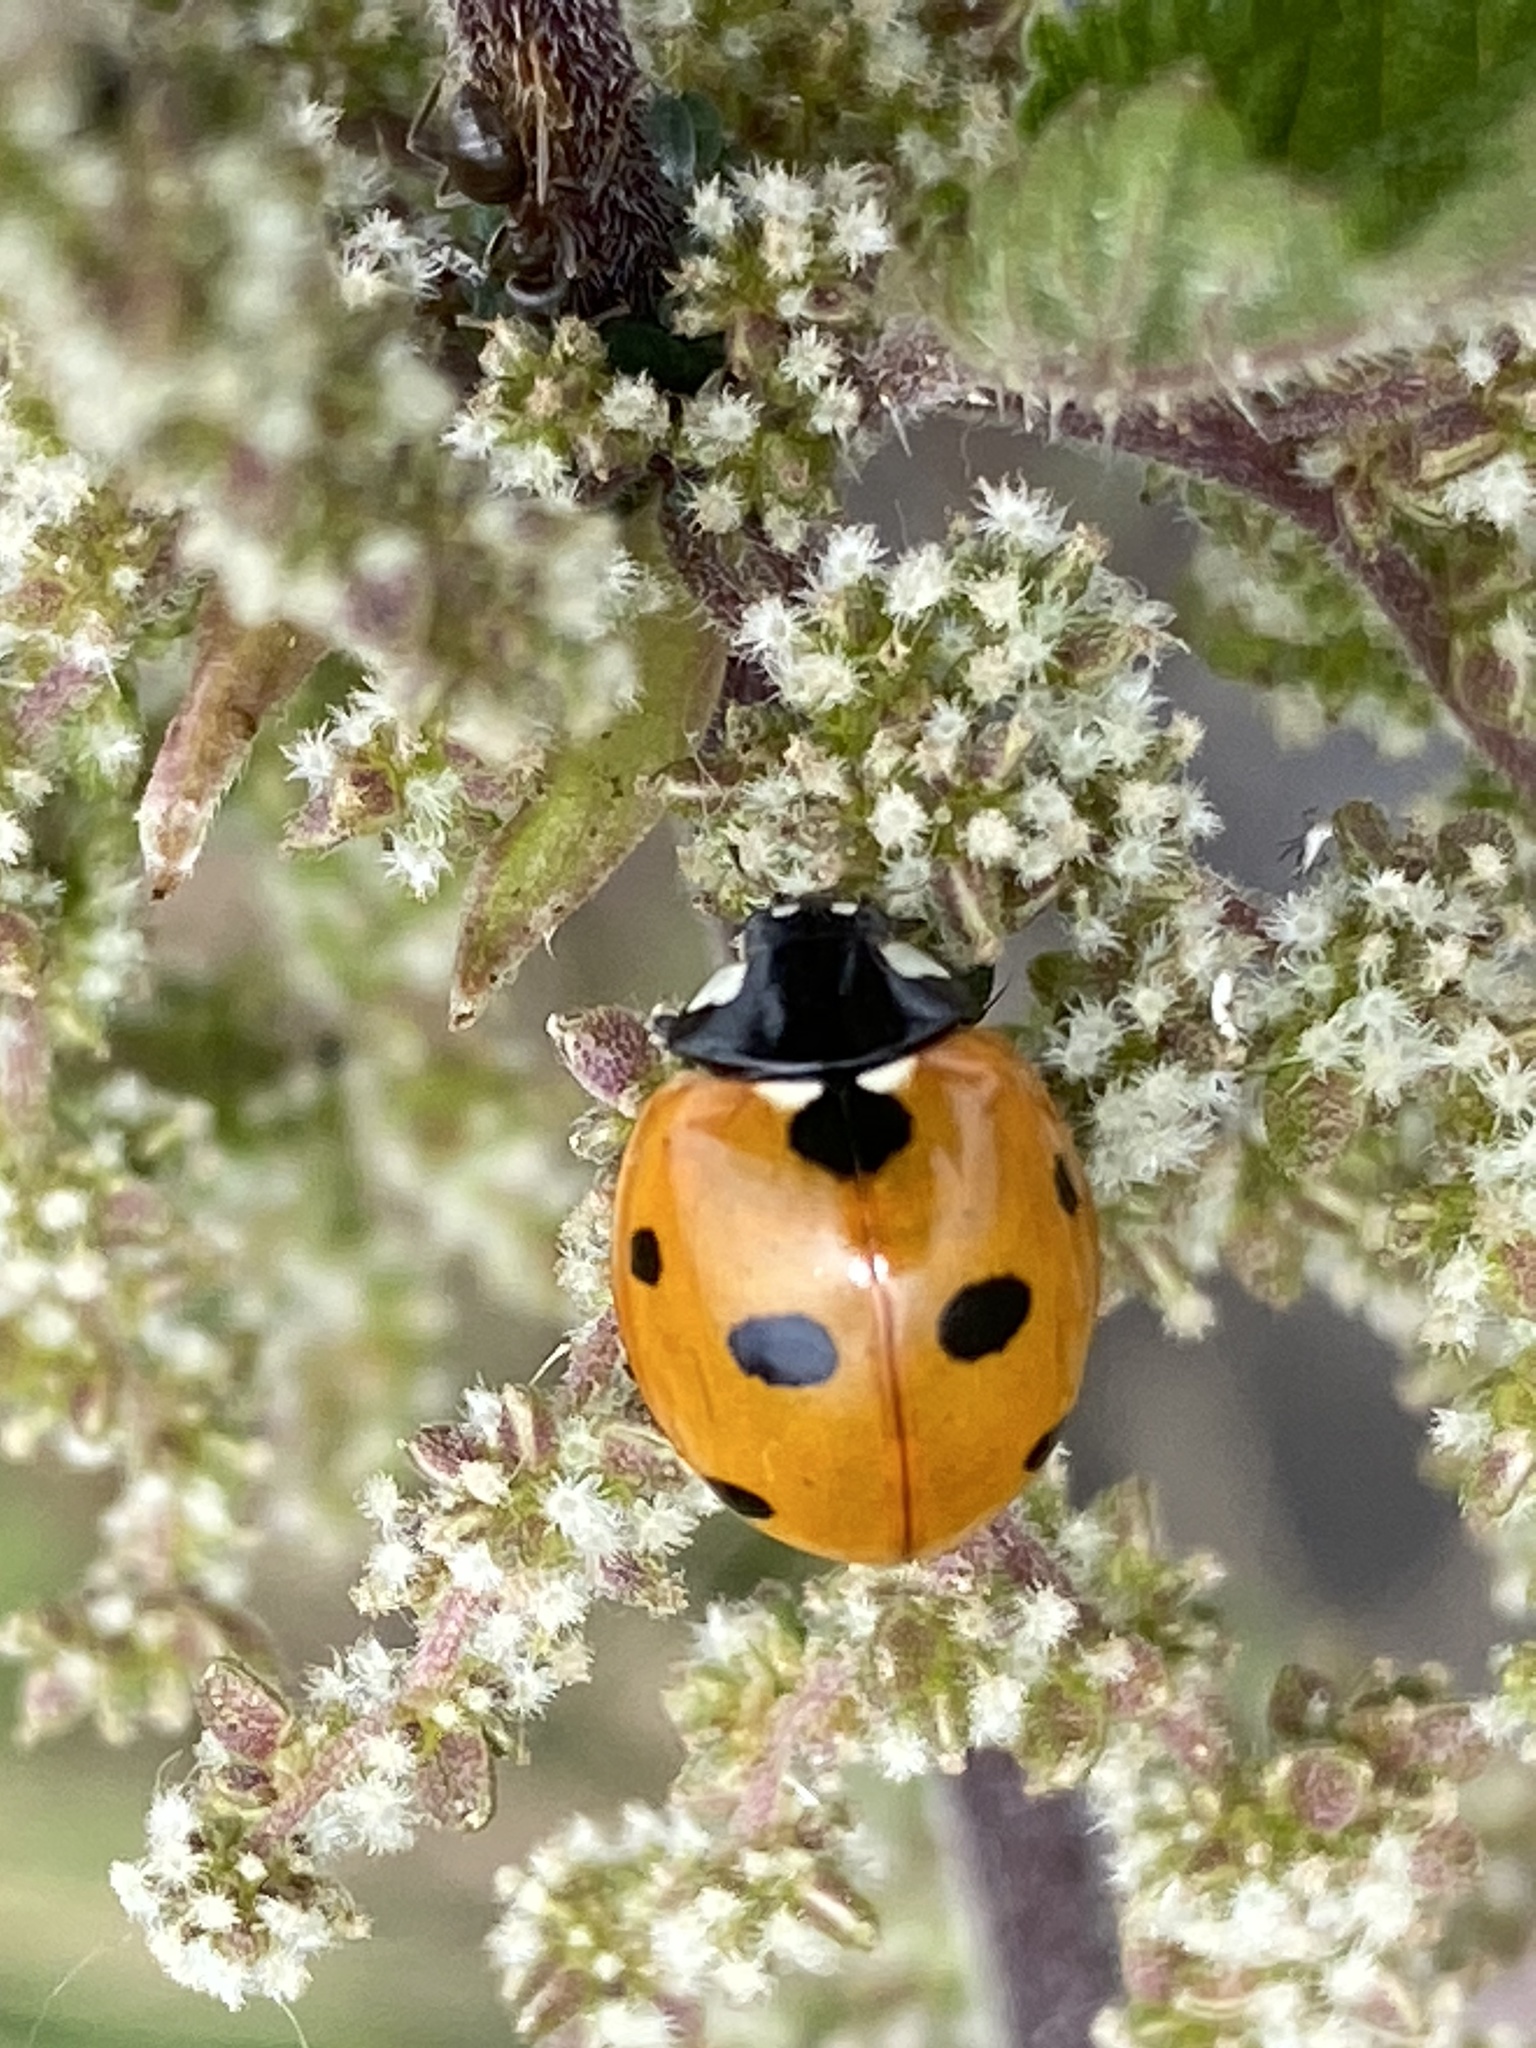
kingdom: Animalia
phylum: Arthropoda
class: Insecta
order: Coleoptera
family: Coccinellidae
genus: Coccinella
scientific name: Coccinella septempunctata
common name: Sevenspotted lady beetle
